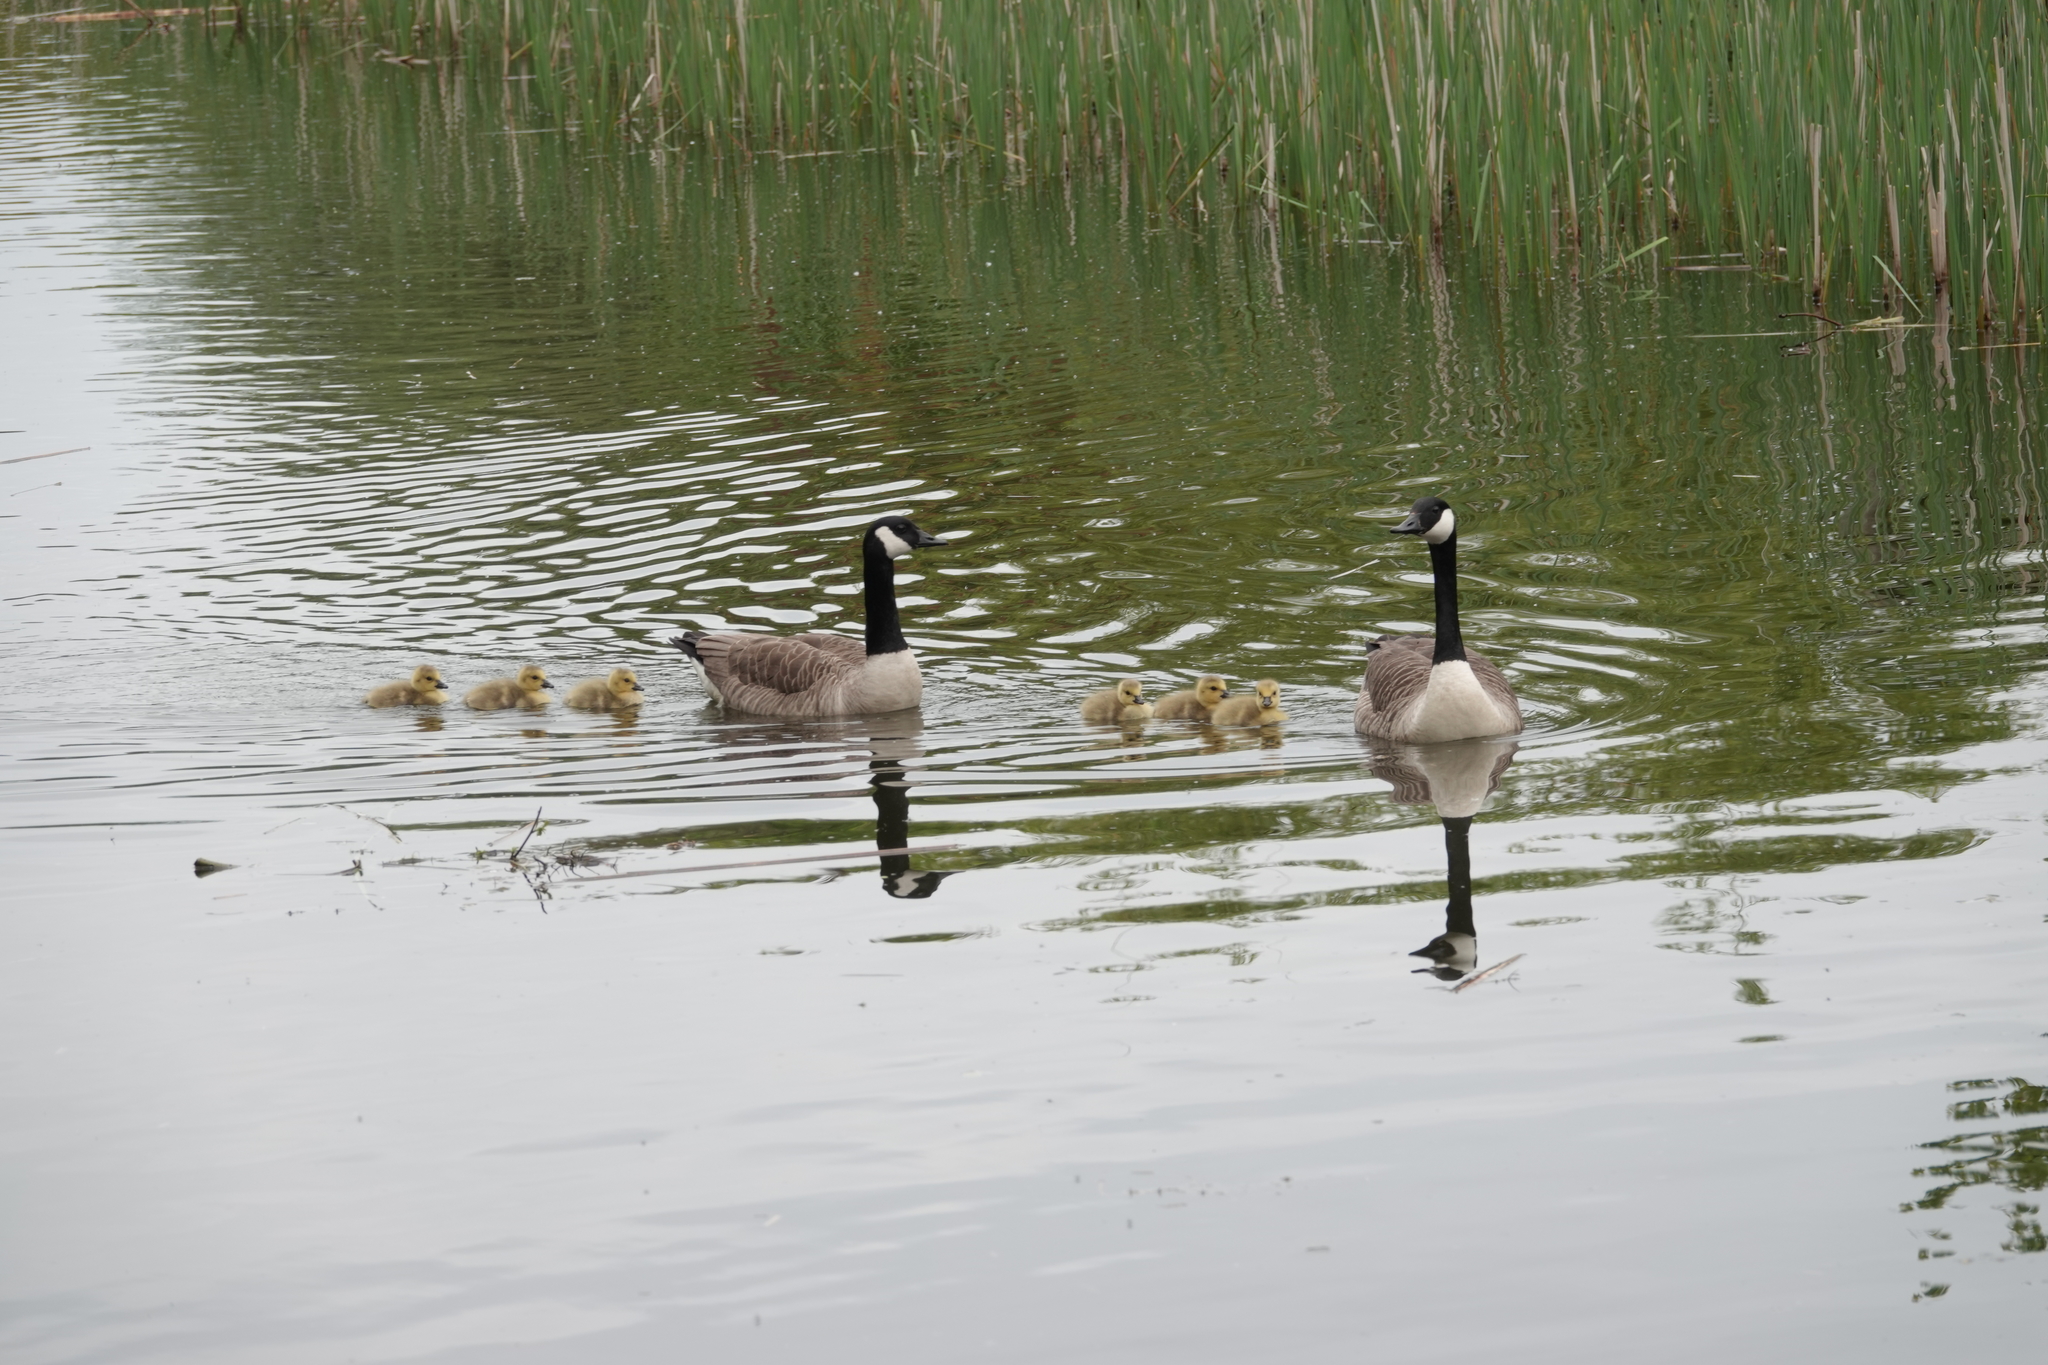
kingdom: Animalia
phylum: Chordata
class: Aves
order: Anseriformes
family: Anatidae
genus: Branta
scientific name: Branta canadensis
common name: Canada goose
